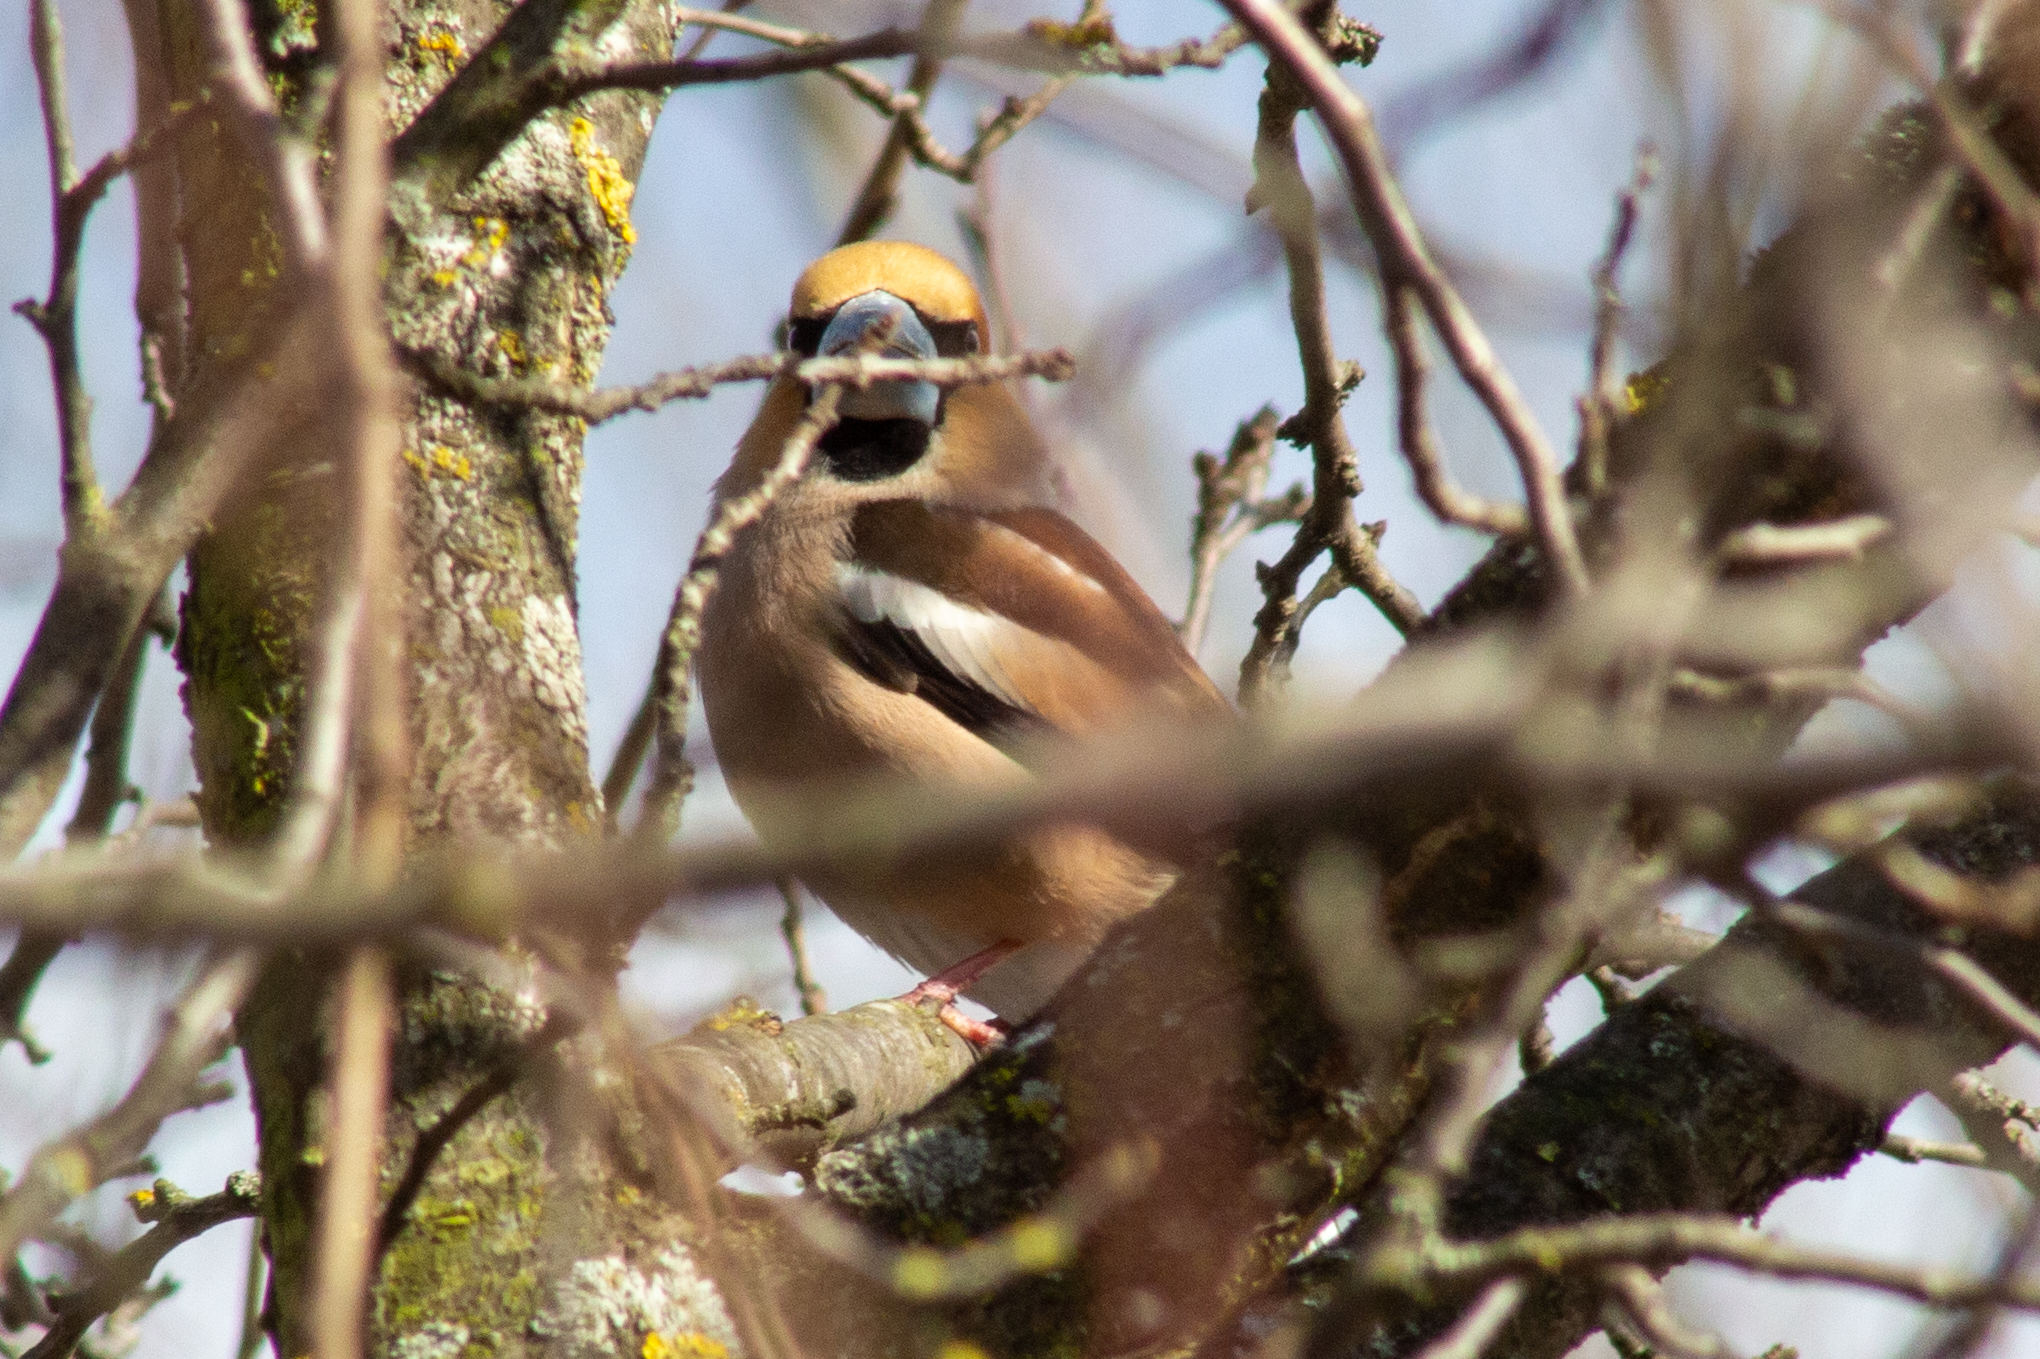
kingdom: Animalia
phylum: Chordata
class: Aves
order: Passeriformes
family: Fringillidae
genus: Coccothraustes
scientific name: Coccothraustes coccothraustes
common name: Hawfinch
